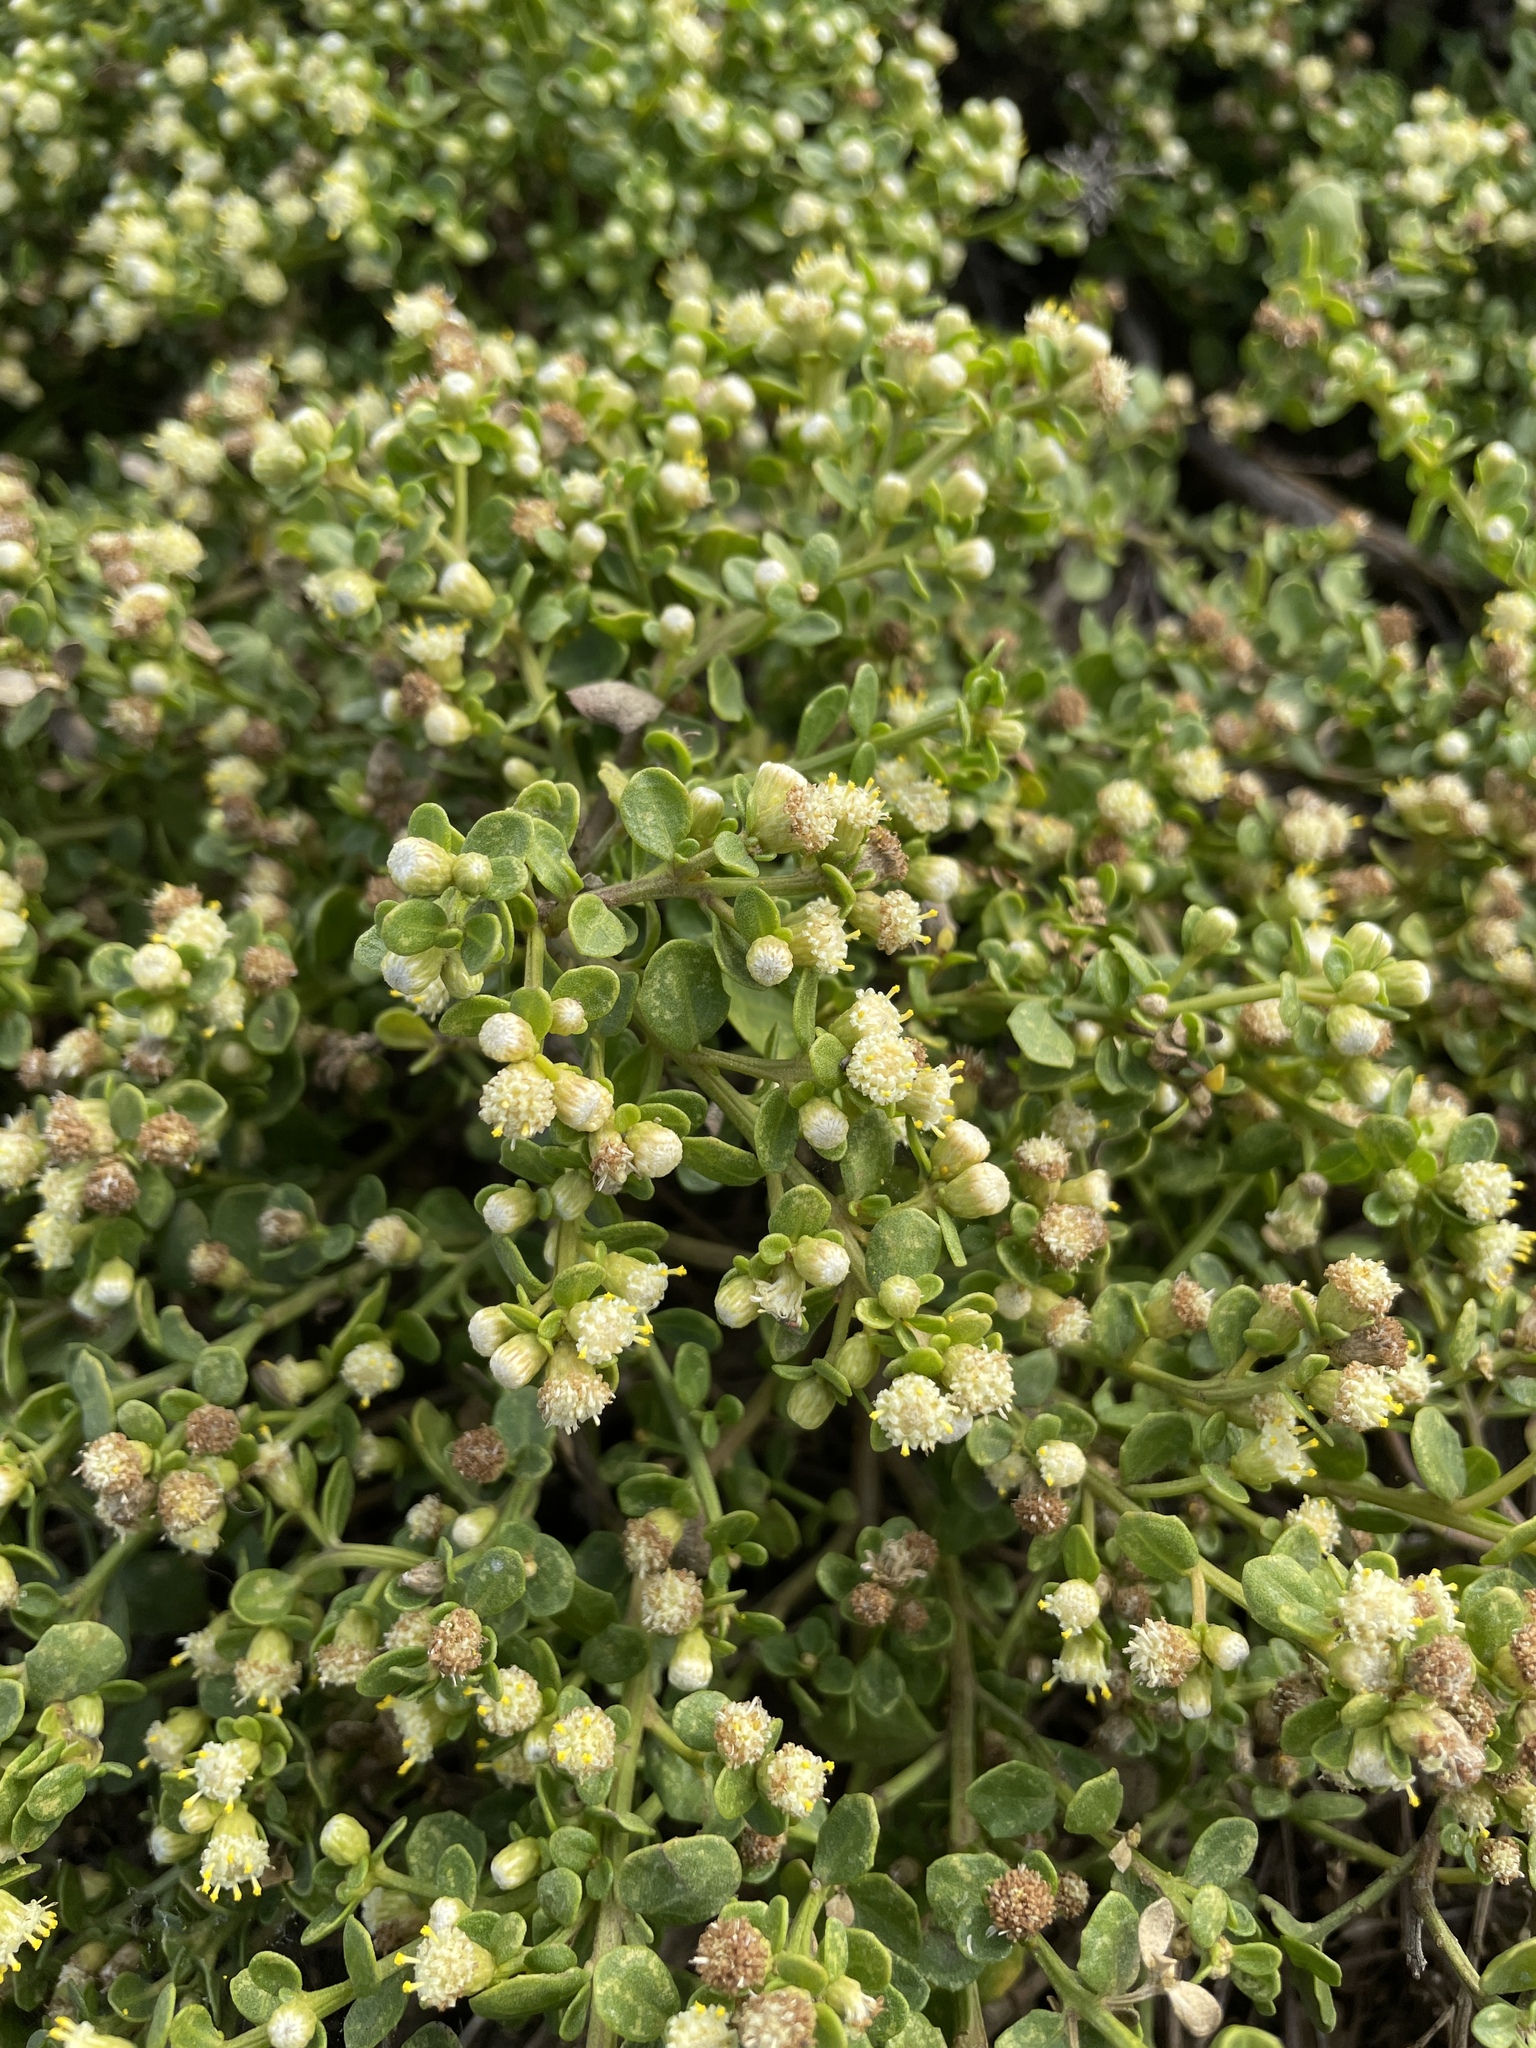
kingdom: Plantae
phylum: Tracheophyta
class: Magnoliopsida
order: Asterales
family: Asteraceae
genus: Baccharis
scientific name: Baccharis pilularis
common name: Coyotebrush
